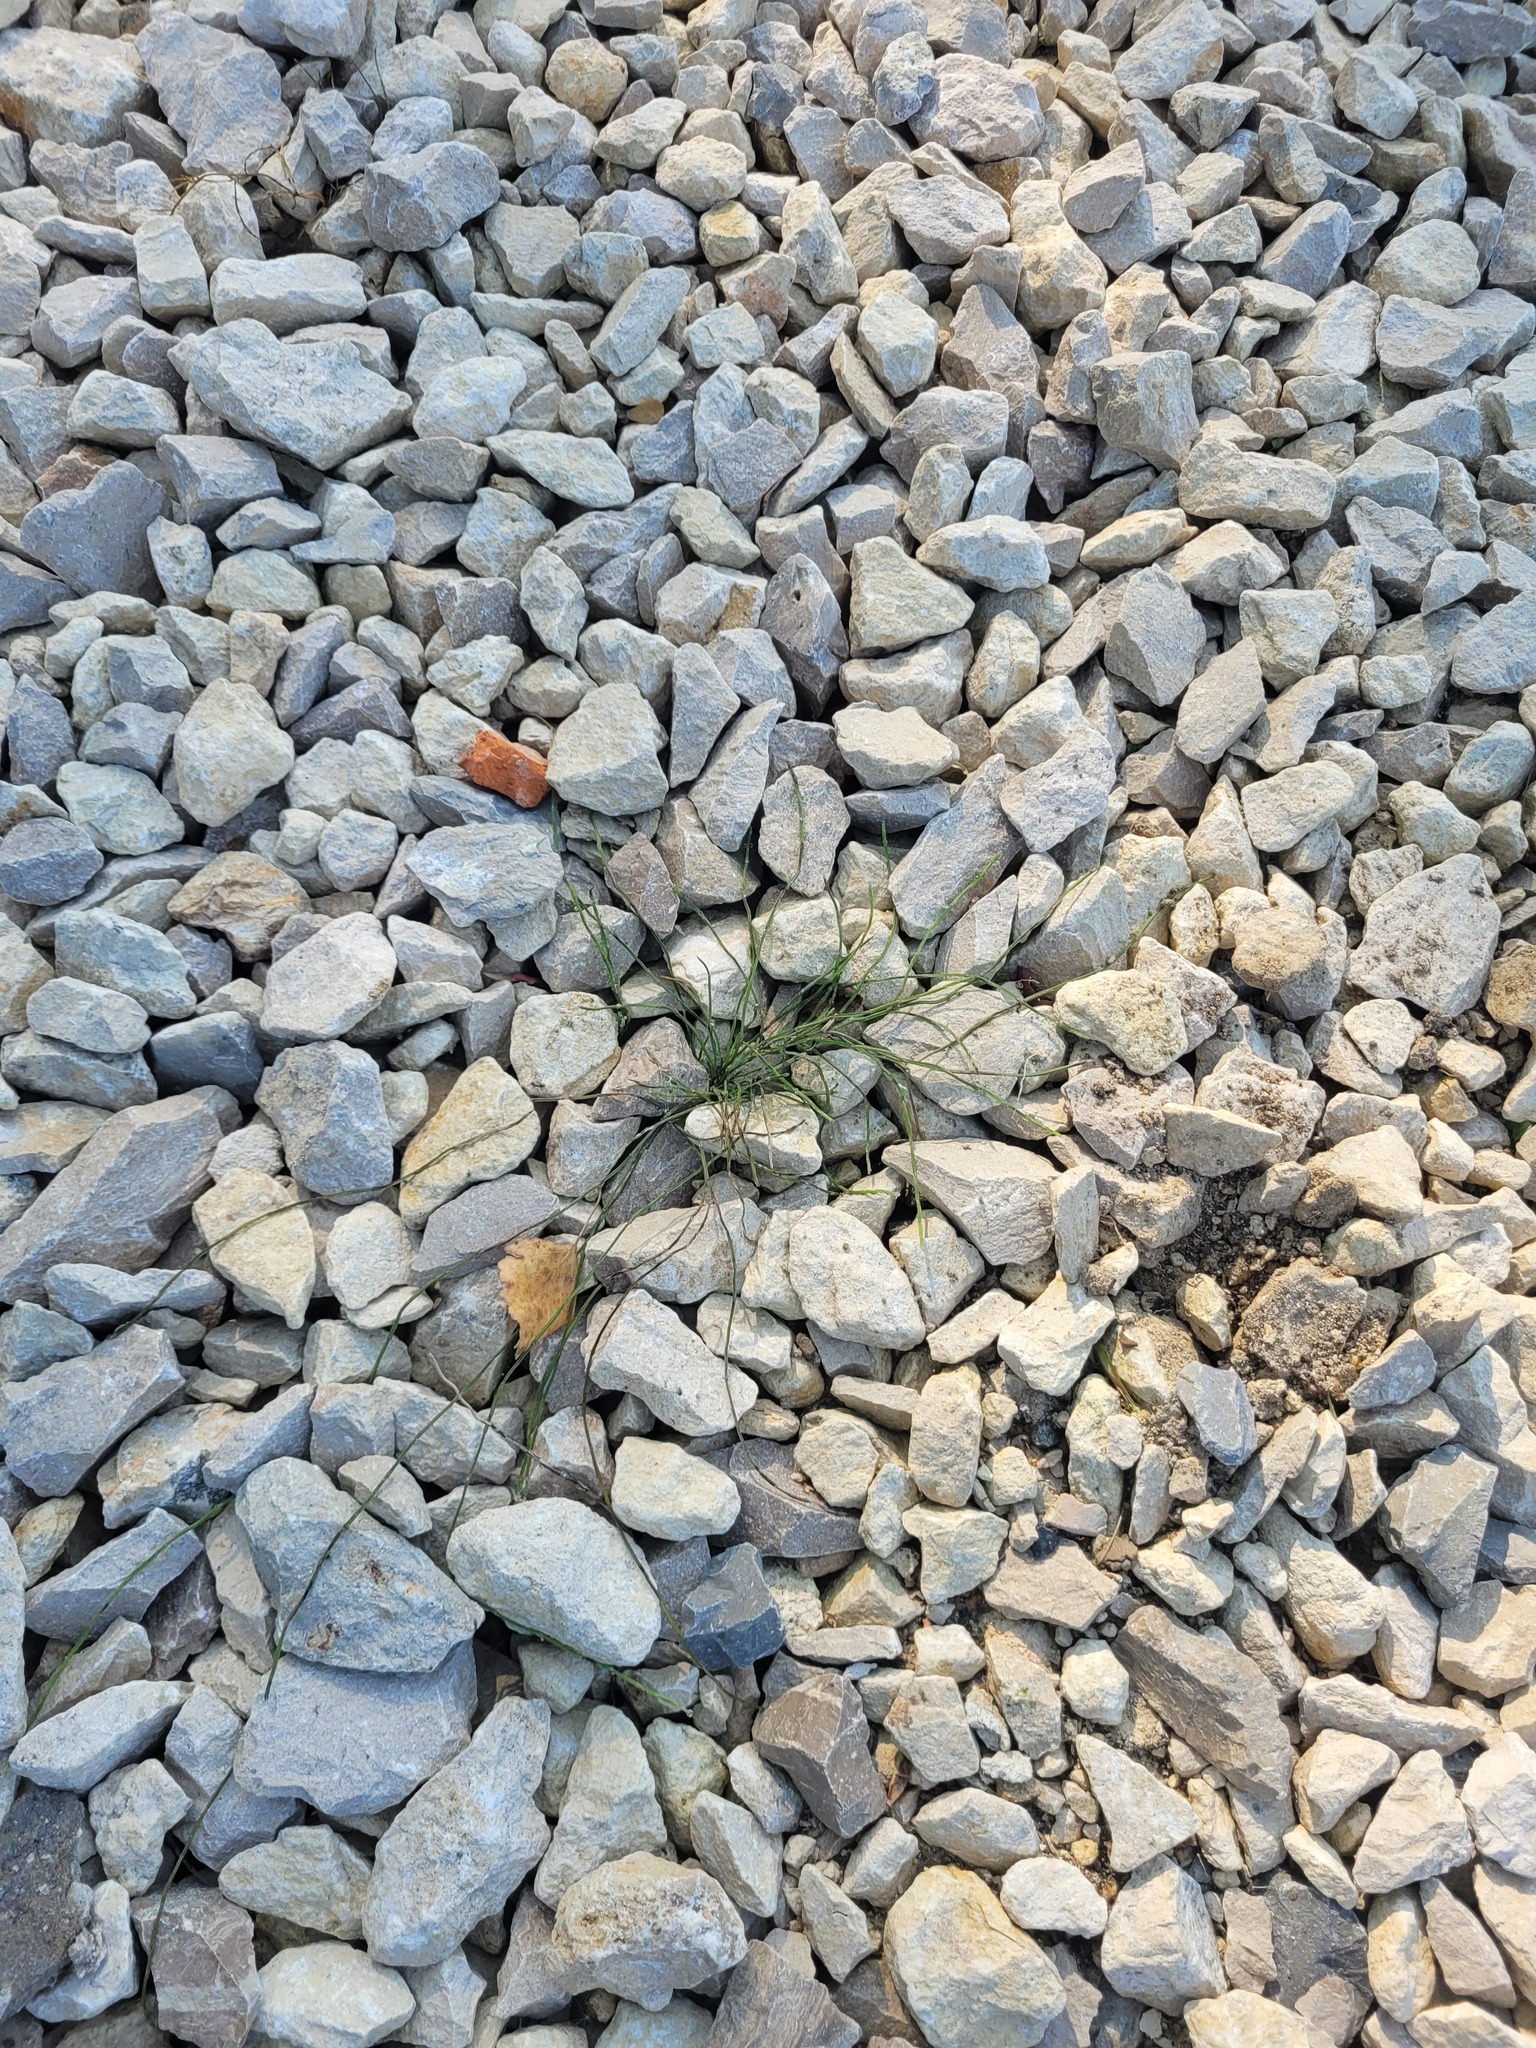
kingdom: Plantae
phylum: Tracheophyta
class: Polypodiopsida
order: Equisetales
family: Equisetaceae
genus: Equisetum
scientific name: Equisetum arvense
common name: Field horsetail
